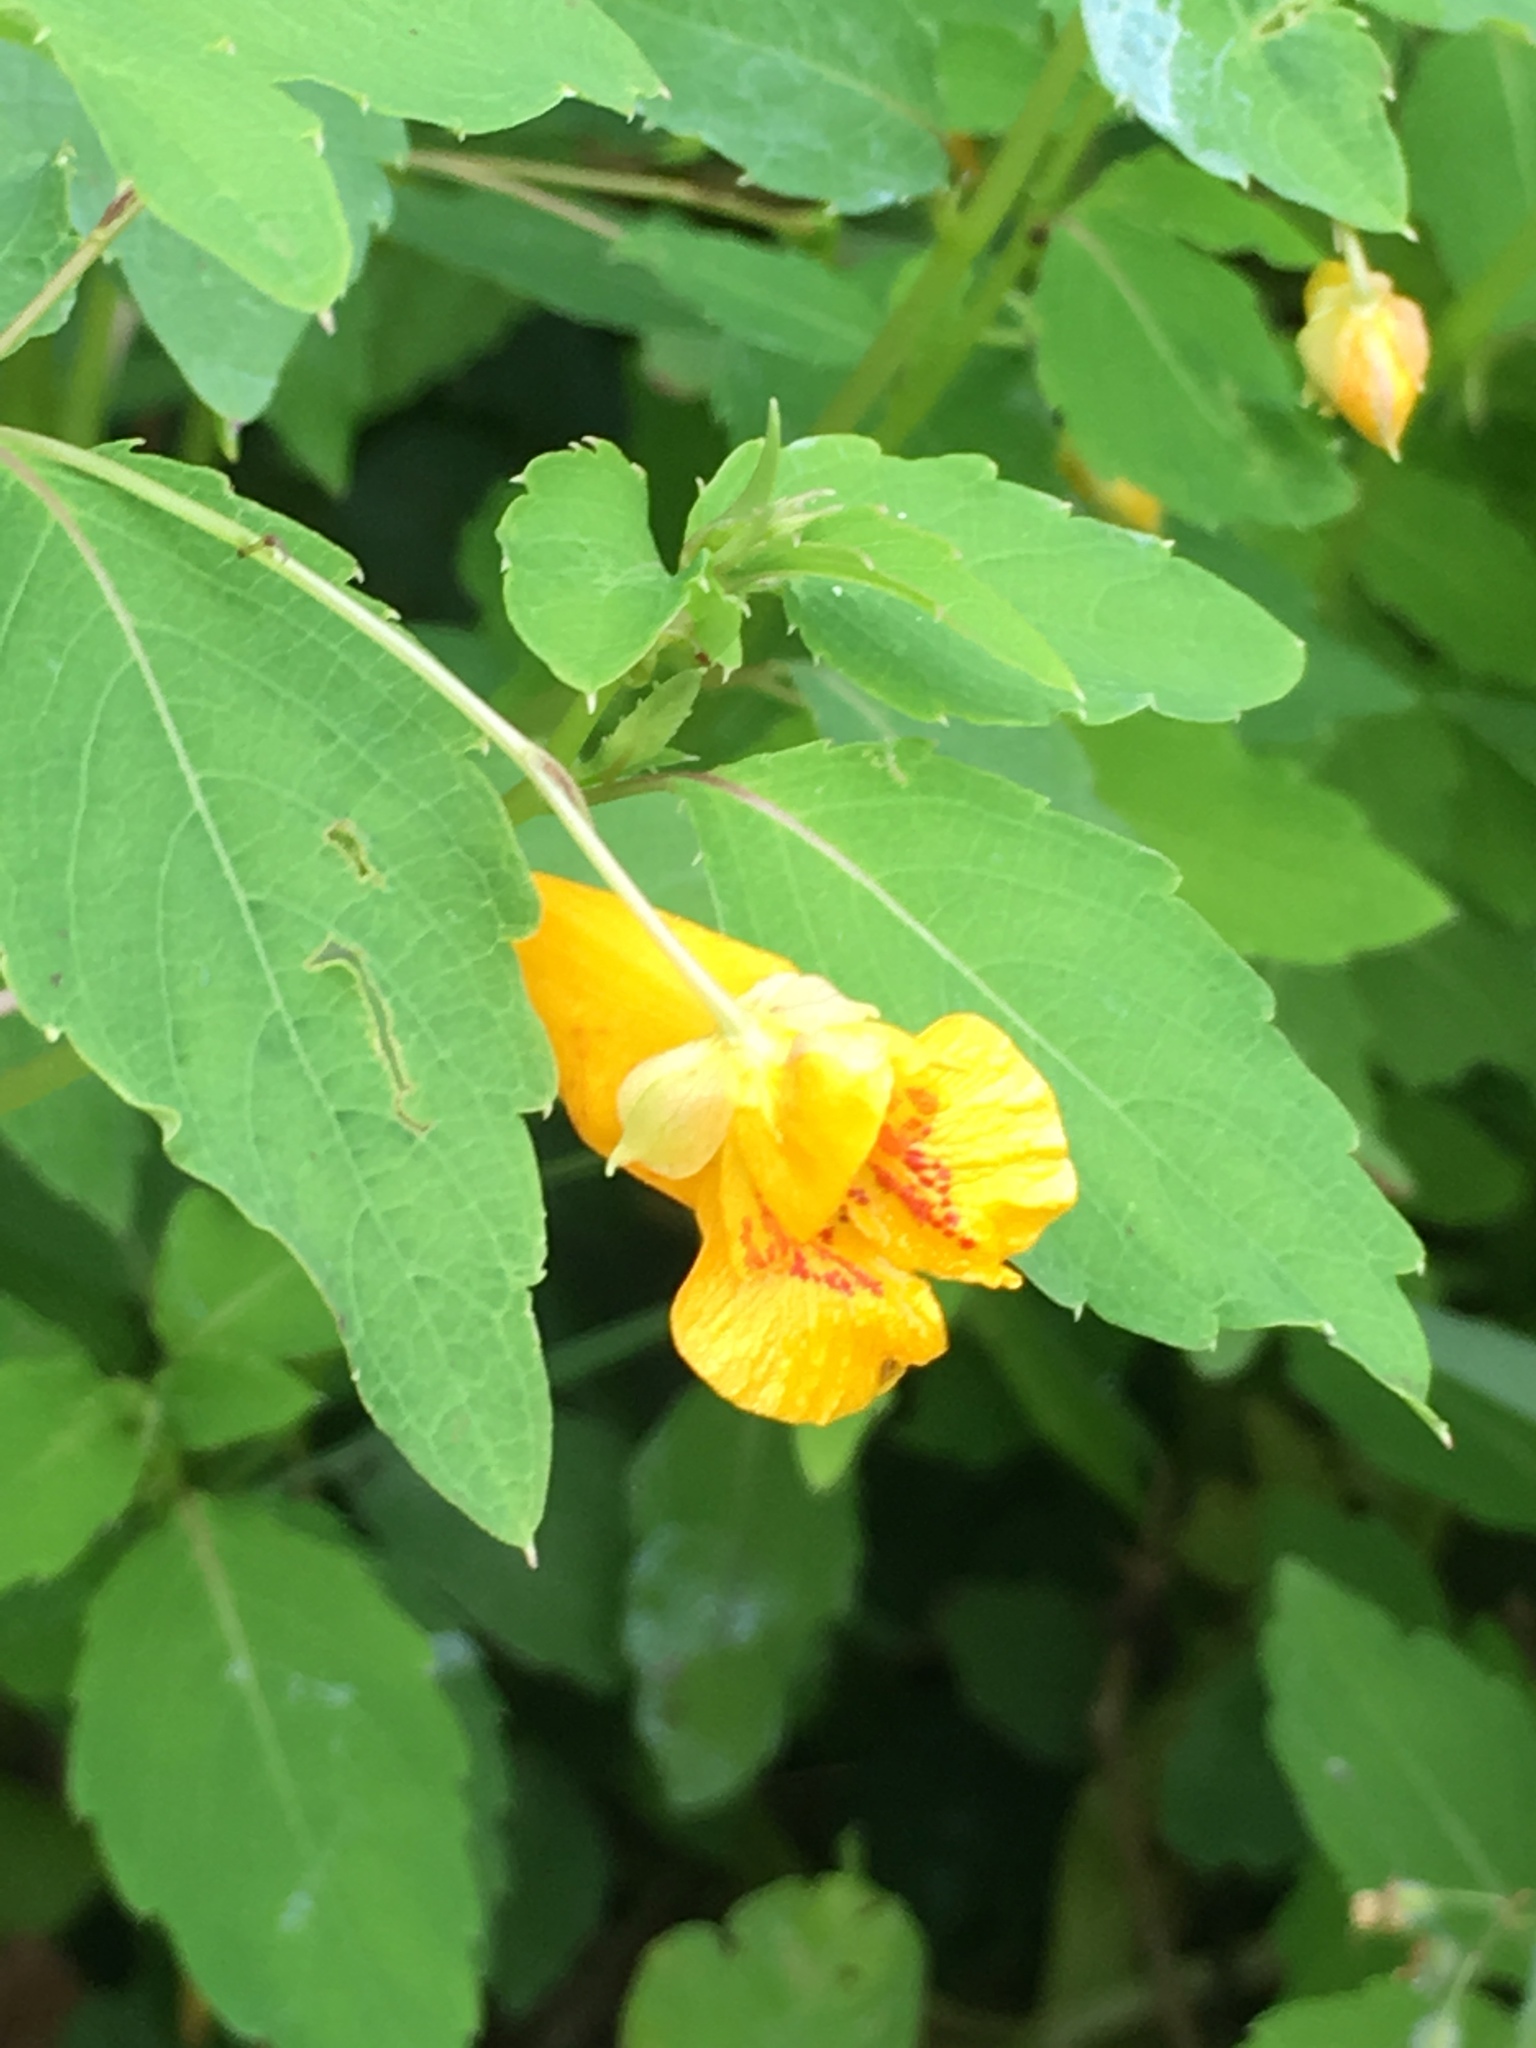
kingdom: Plantae
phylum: Tracheophyta
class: Magnoliopsida
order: Ericales
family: Balsaminaceae
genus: Impatiens
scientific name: Impatiens capensis
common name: Orange balsam
